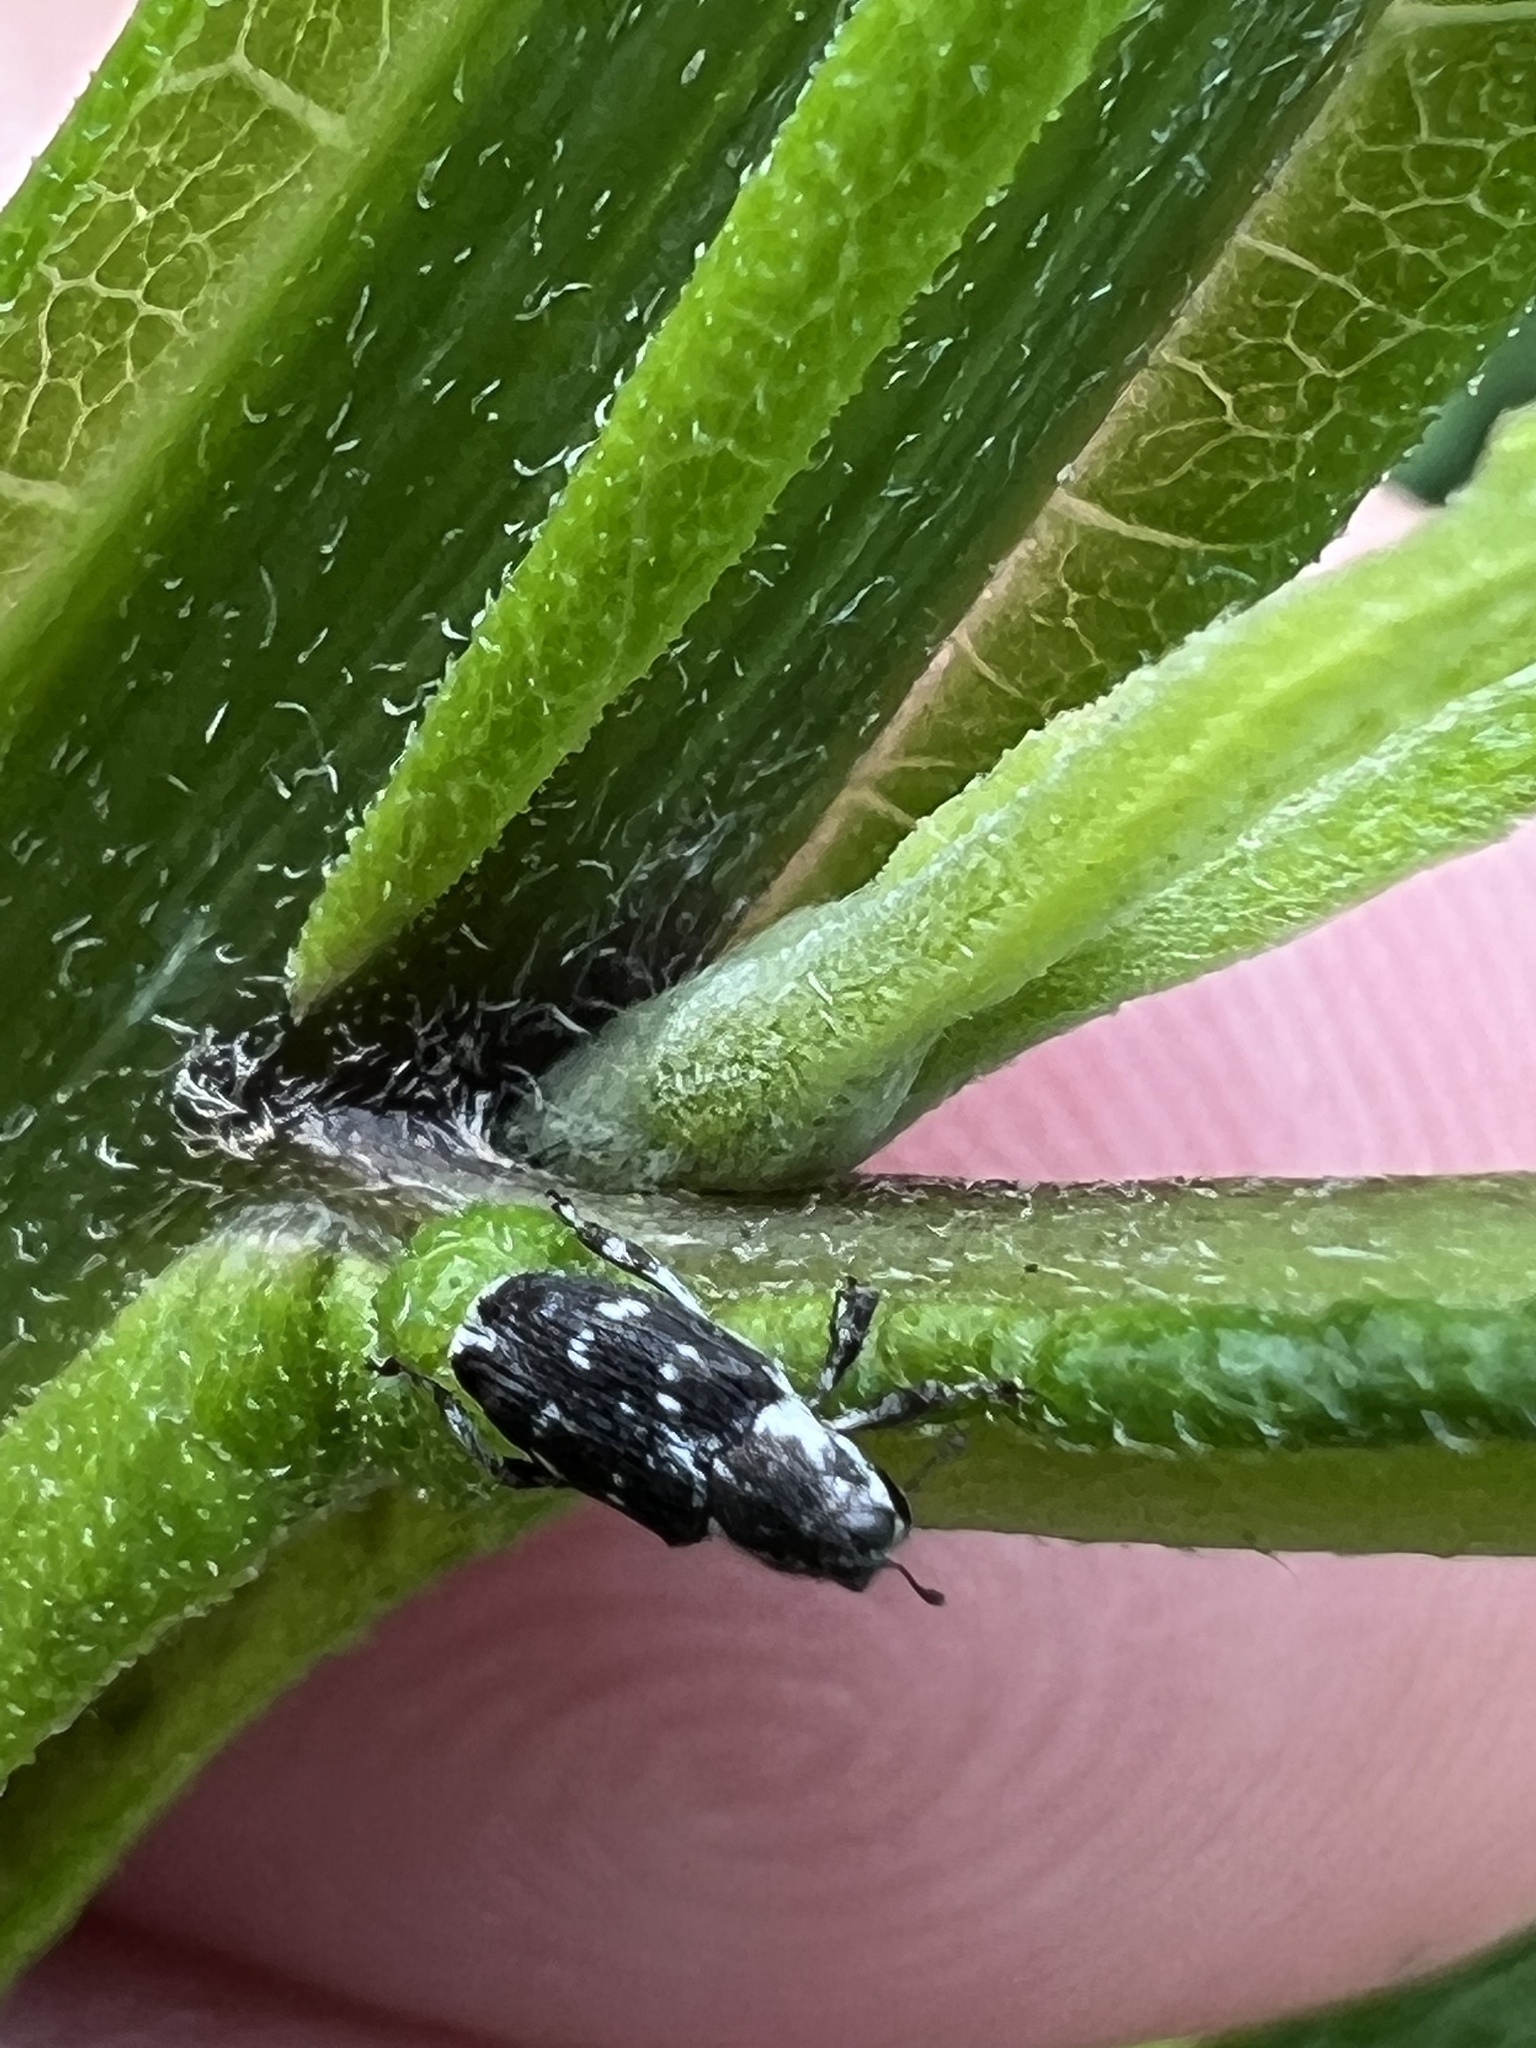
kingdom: Animalia
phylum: Arthropoda
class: Insecta
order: Coleoptera
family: Curculionidae
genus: Cylindrocopturus
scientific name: Cylindrocopturus quercus
